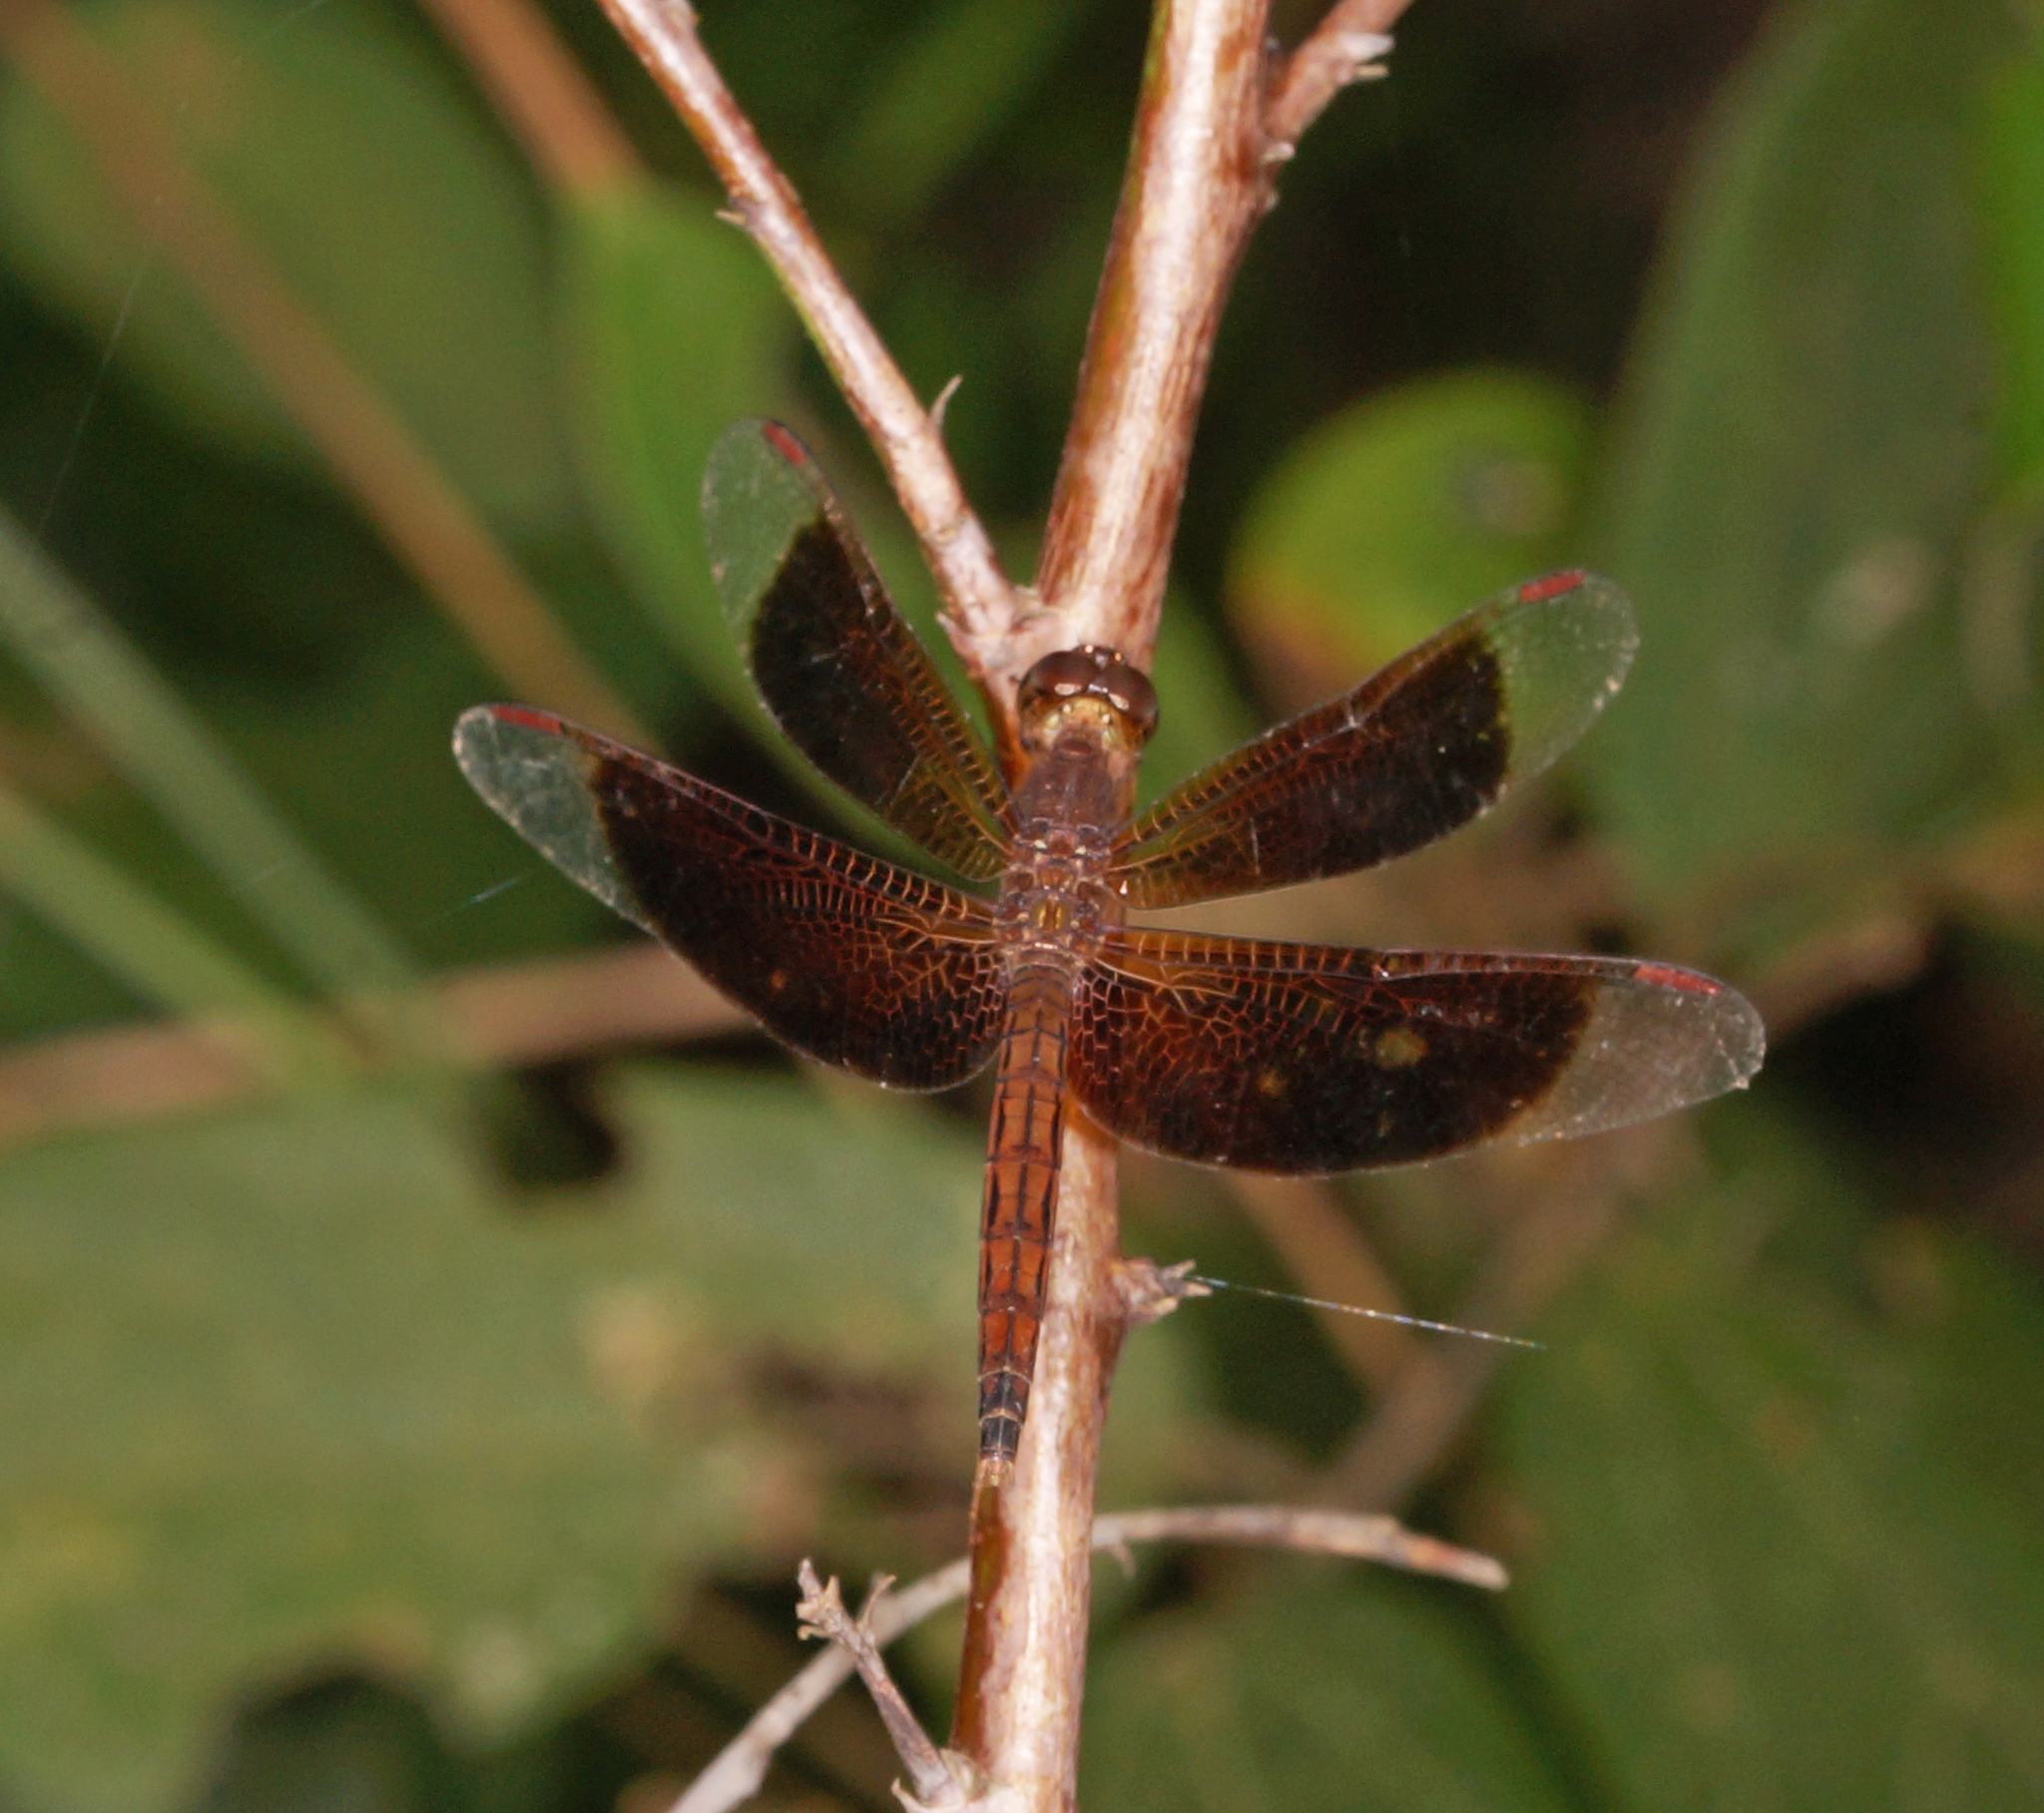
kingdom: Animalia
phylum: Arthropoda
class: Insecta
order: Odonata
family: Libellulidae
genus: Neurothemis
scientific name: Neurothemis fluctuans
